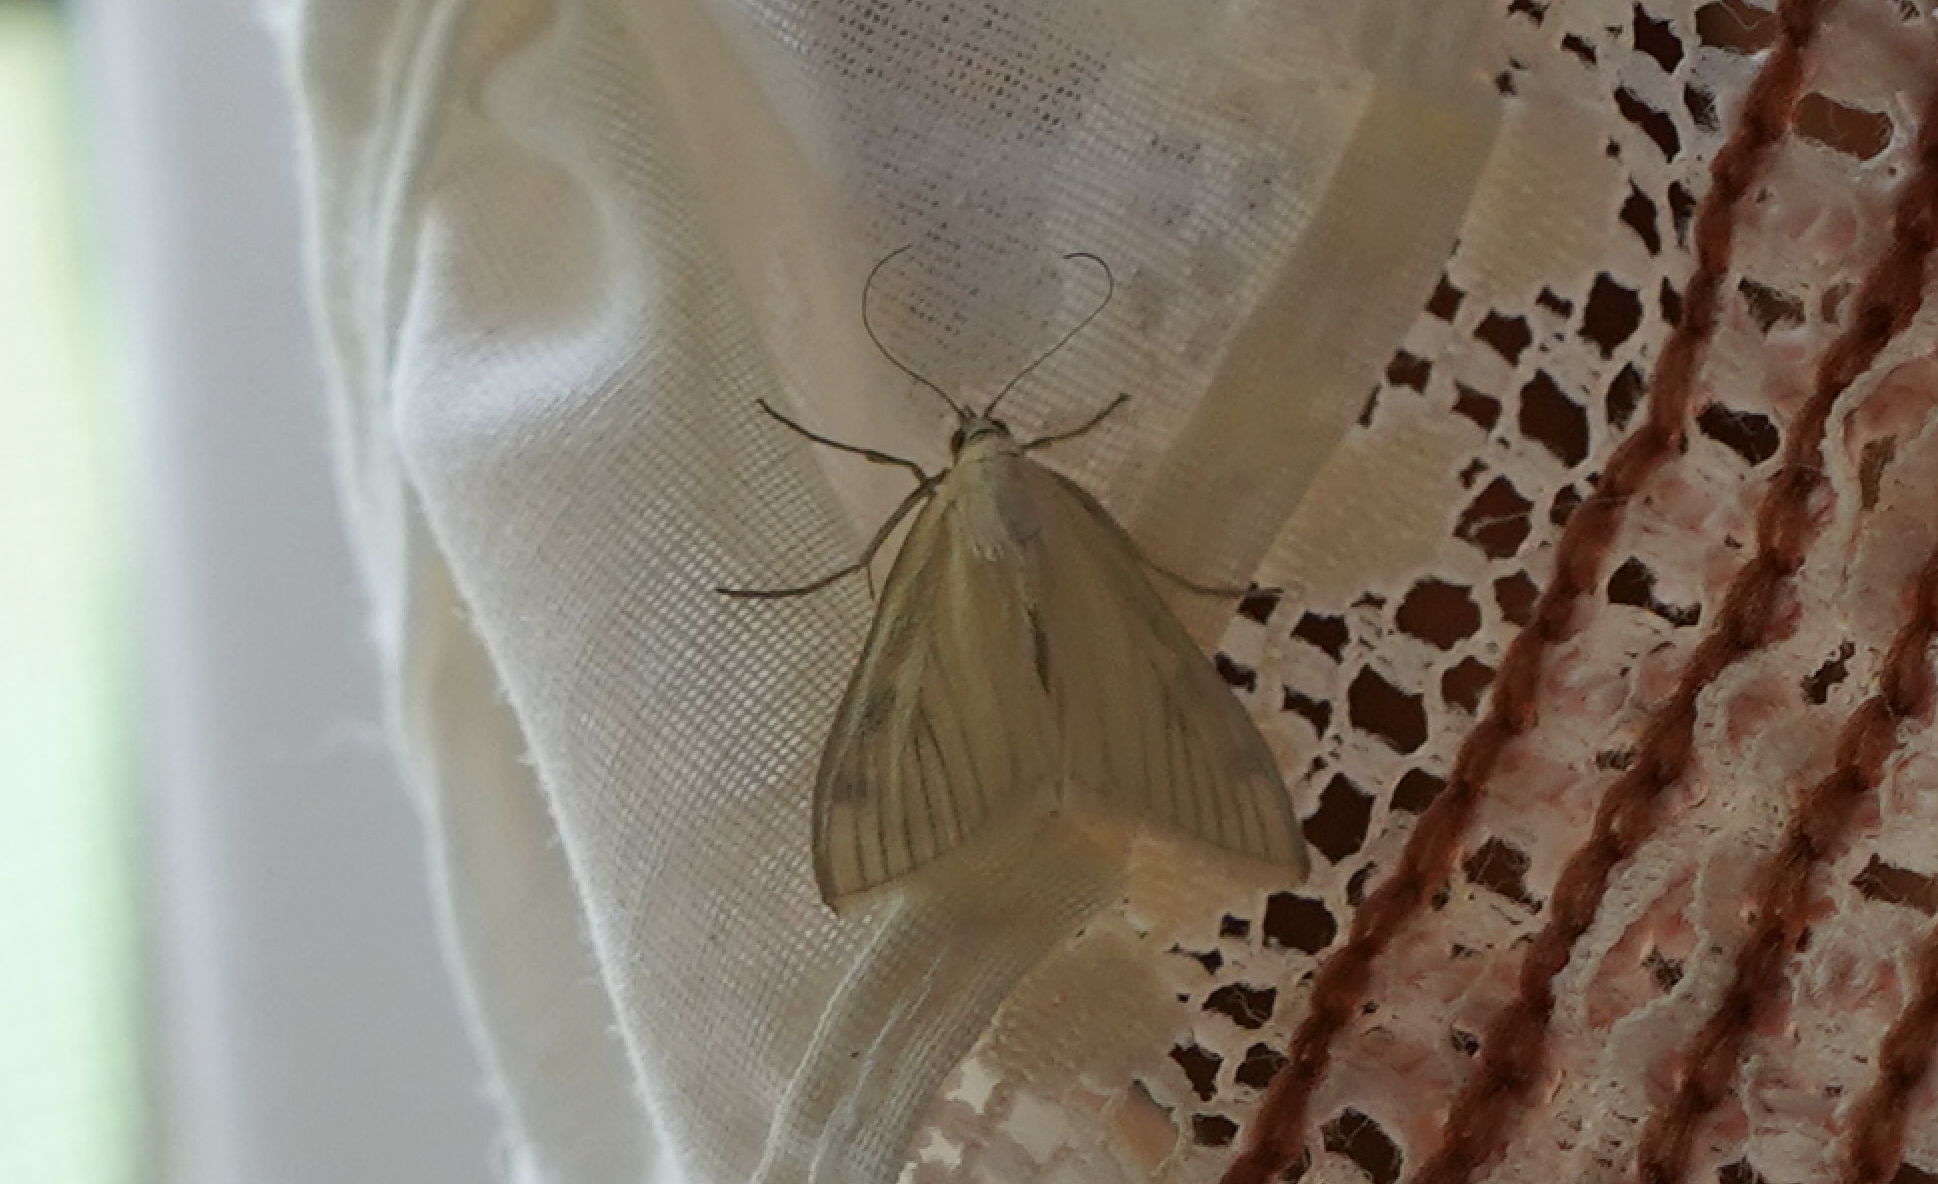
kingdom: Animalia
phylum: Arthropoda
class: Insecta
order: Lepidoptera
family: Crambidae
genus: Sitochroa
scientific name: Sitochroa palealis
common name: Greenish-yellow sitochroa moth
